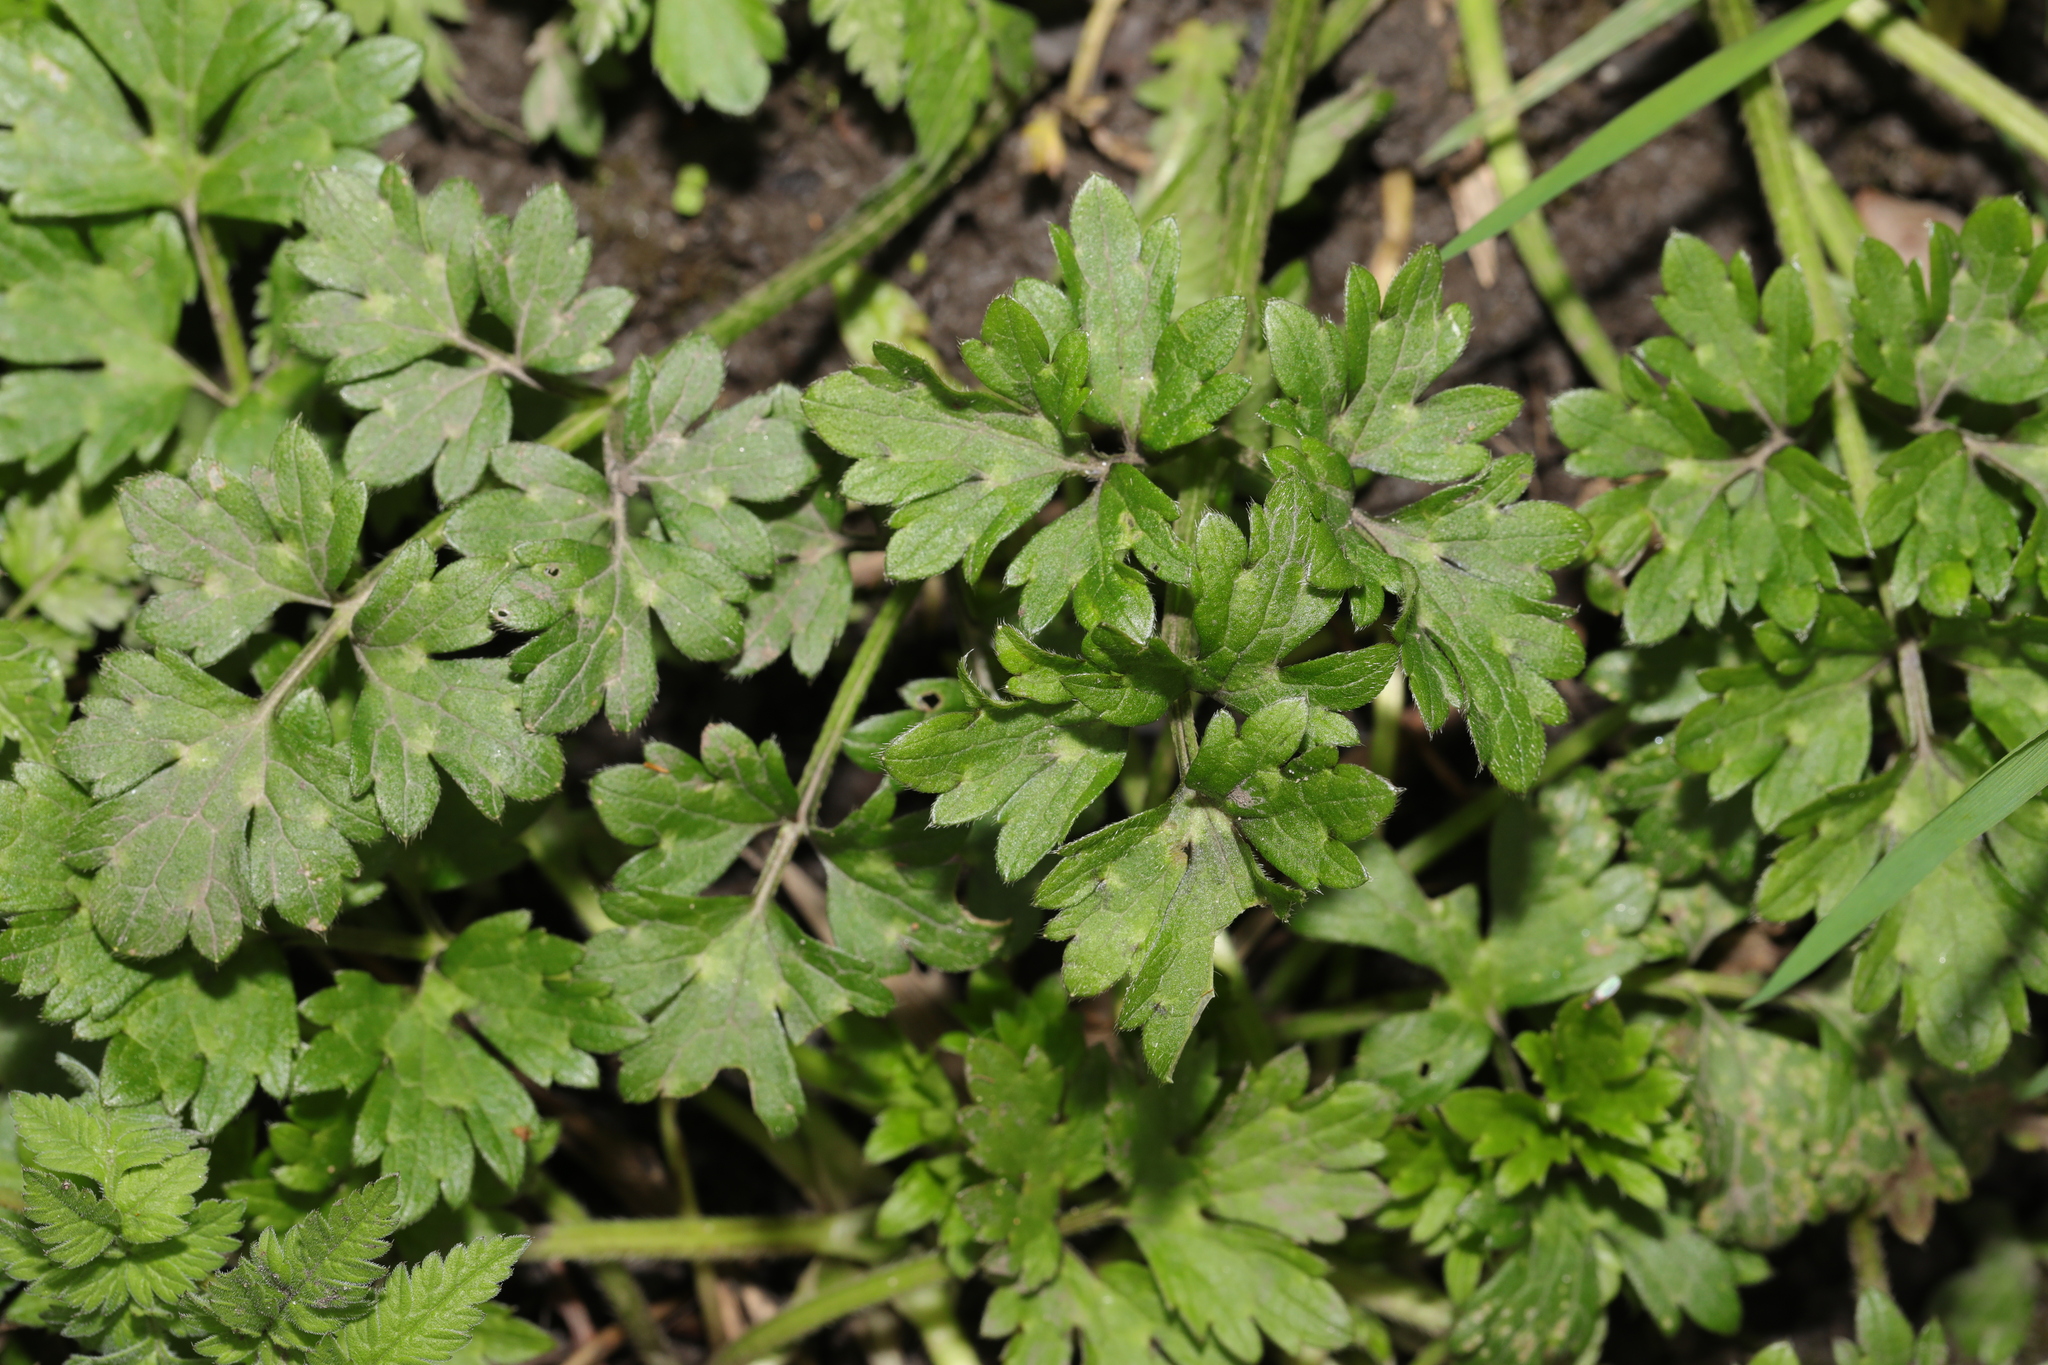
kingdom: Plantae
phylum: Tracheophyta
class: Magnoliopsida
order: Ranunculales
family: Ranunculaceae
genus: Ranunculus
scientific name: Ranunculus repens
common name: Creeping buttercup
